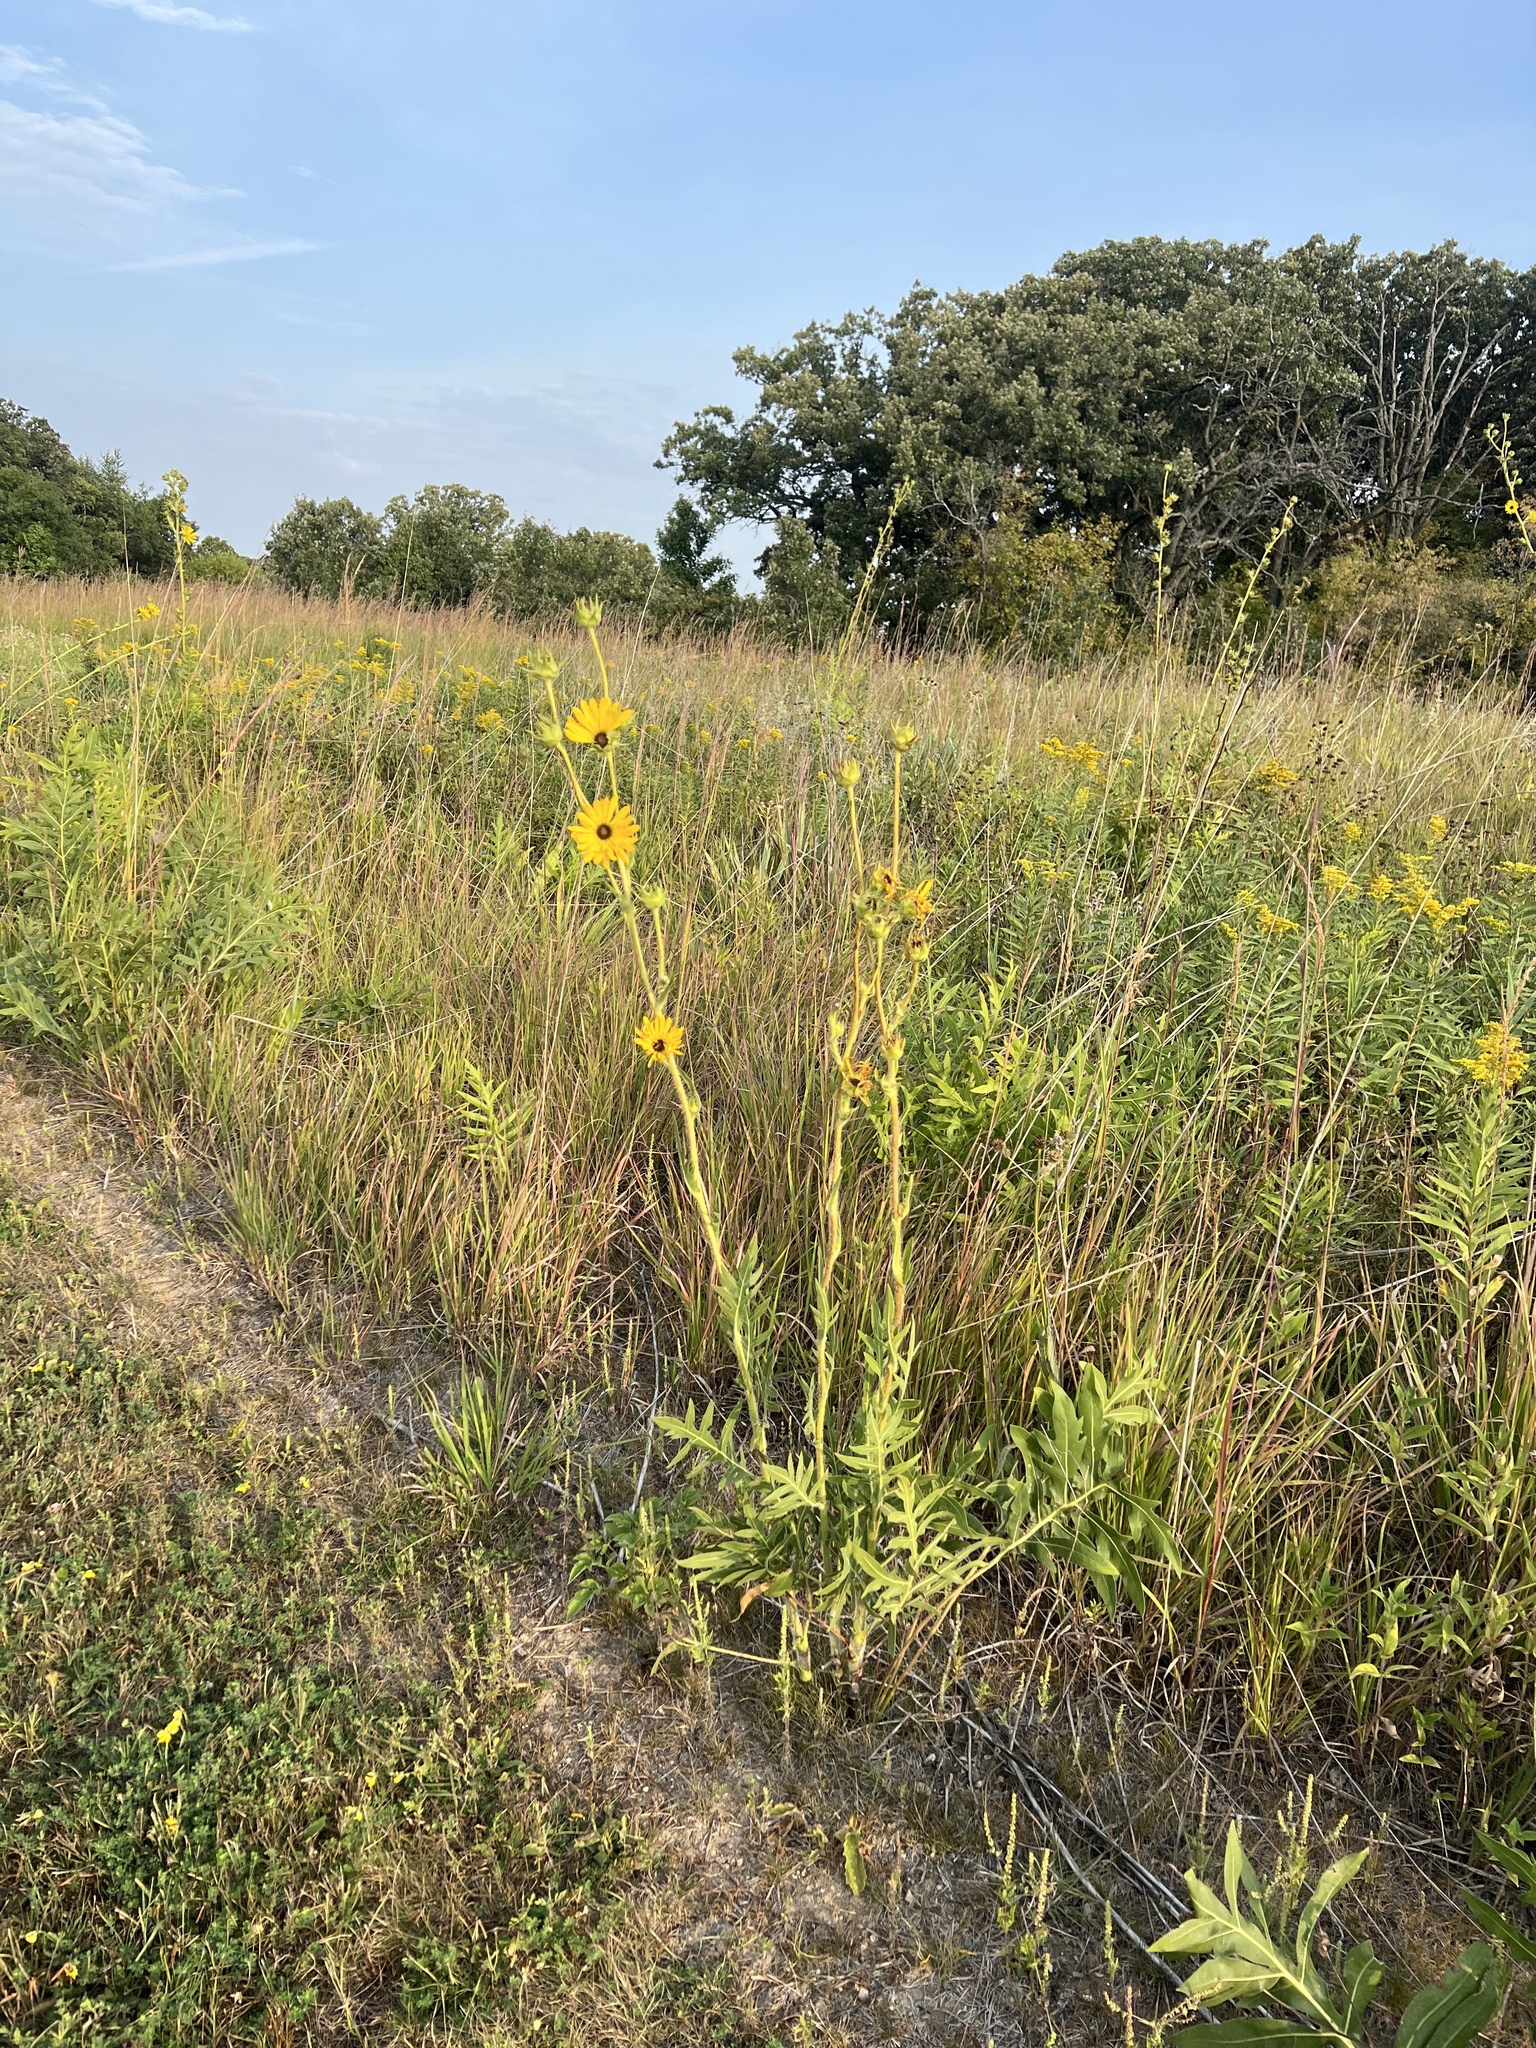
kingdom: Plantae
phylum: Tracheophyta
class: Magnoliopsida
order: Asterales
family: Asteraceae
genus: Silphium
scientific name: Silphium laciniatum
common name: Polarplant
